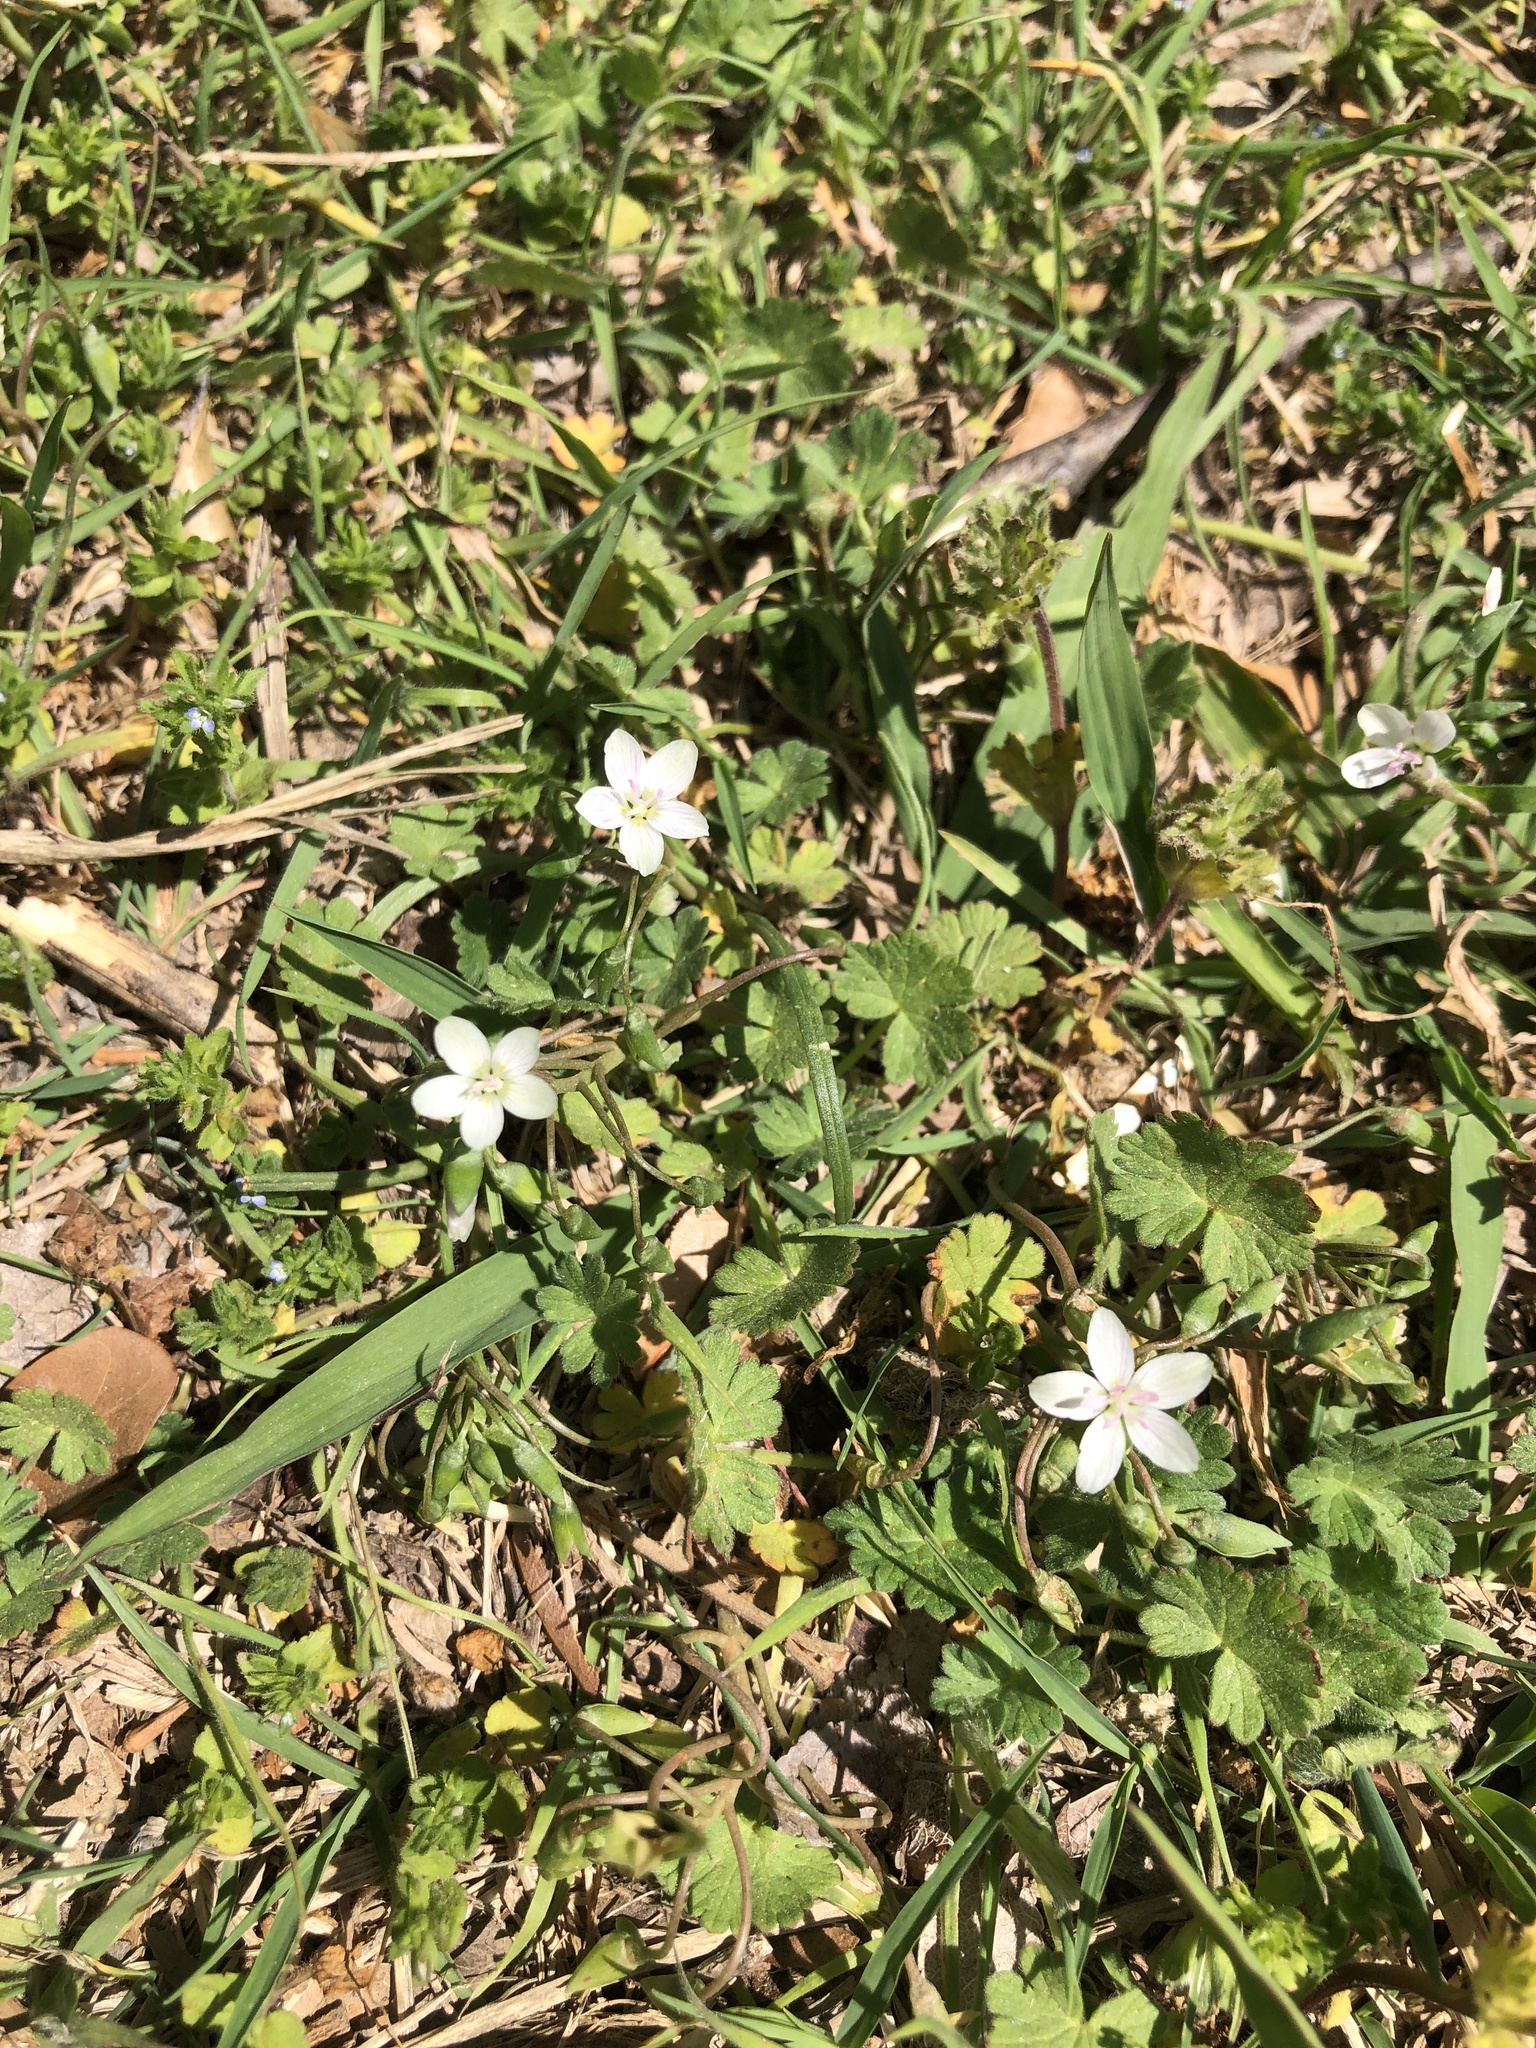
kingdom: Plantae
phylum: Tracheophyta
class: Magnoliopsida
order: Caryophyllales
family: Montiaceae
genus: Claytonia
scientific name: Claytonia virginica
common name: Virginia springbeauty
